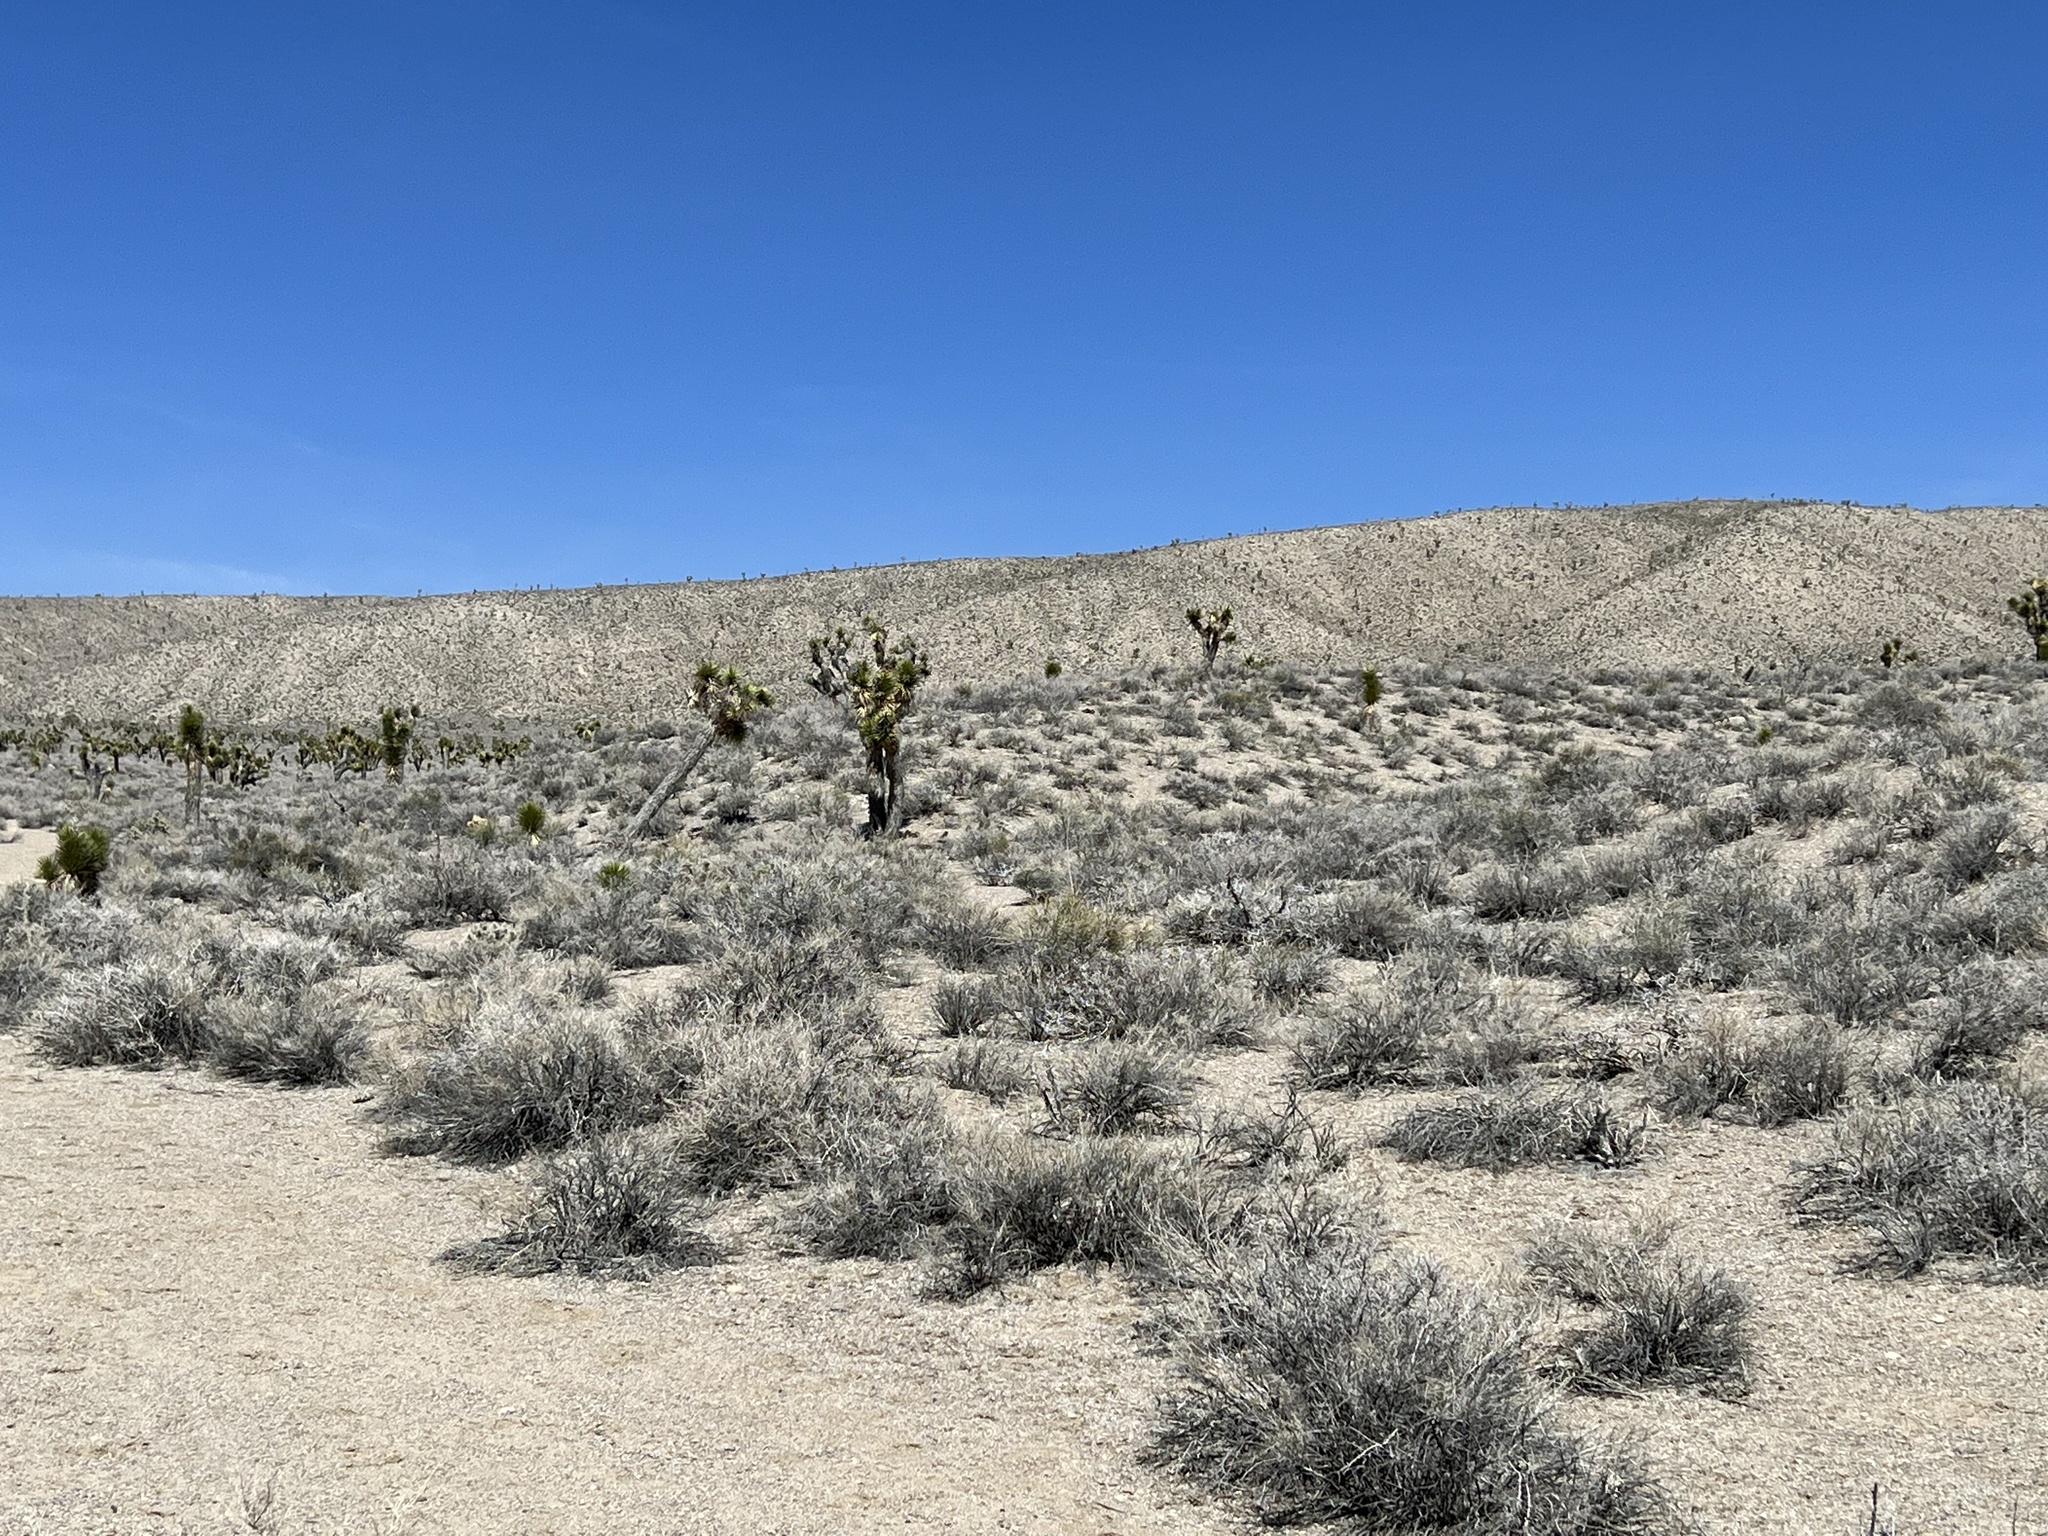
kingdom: Plantae
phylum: Tracheophyta
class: Liliopsida
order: Asparagales
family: Asparagaceae
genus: Yucca
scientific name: Yucca brevifolia
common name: Joshua tree
